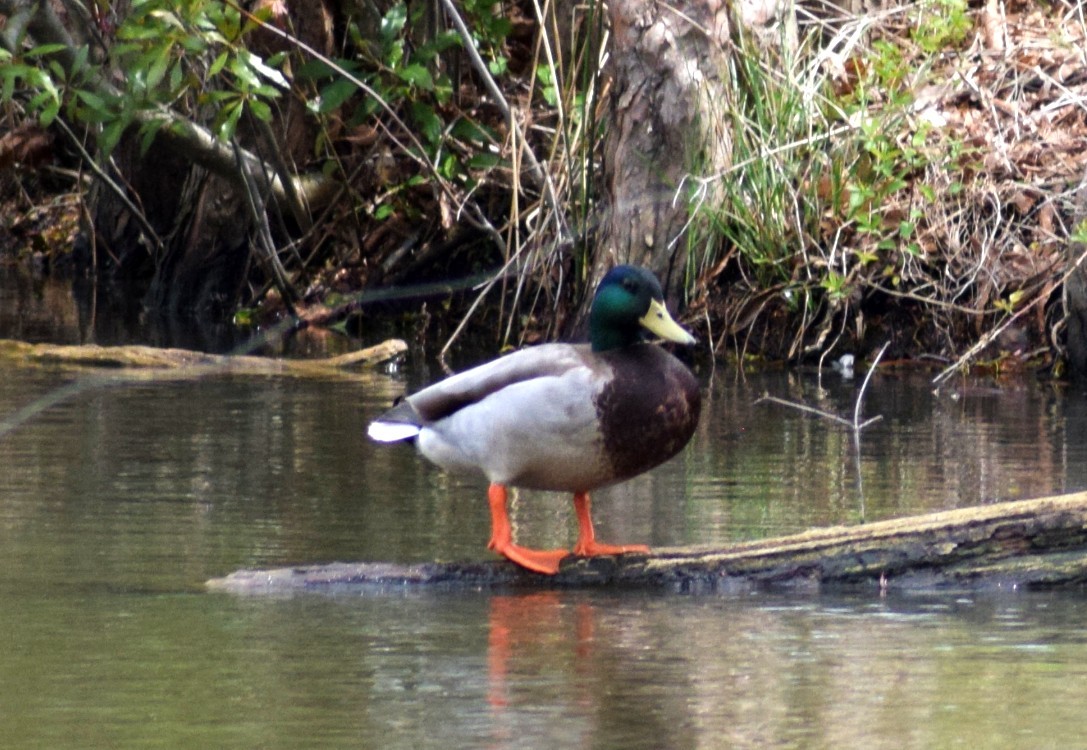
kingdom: Animalia
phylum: Chordata
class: Aves
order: Anseriformes
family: Anatidae
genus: Anas
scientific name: Anas platyrhynchos
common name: Mallard
